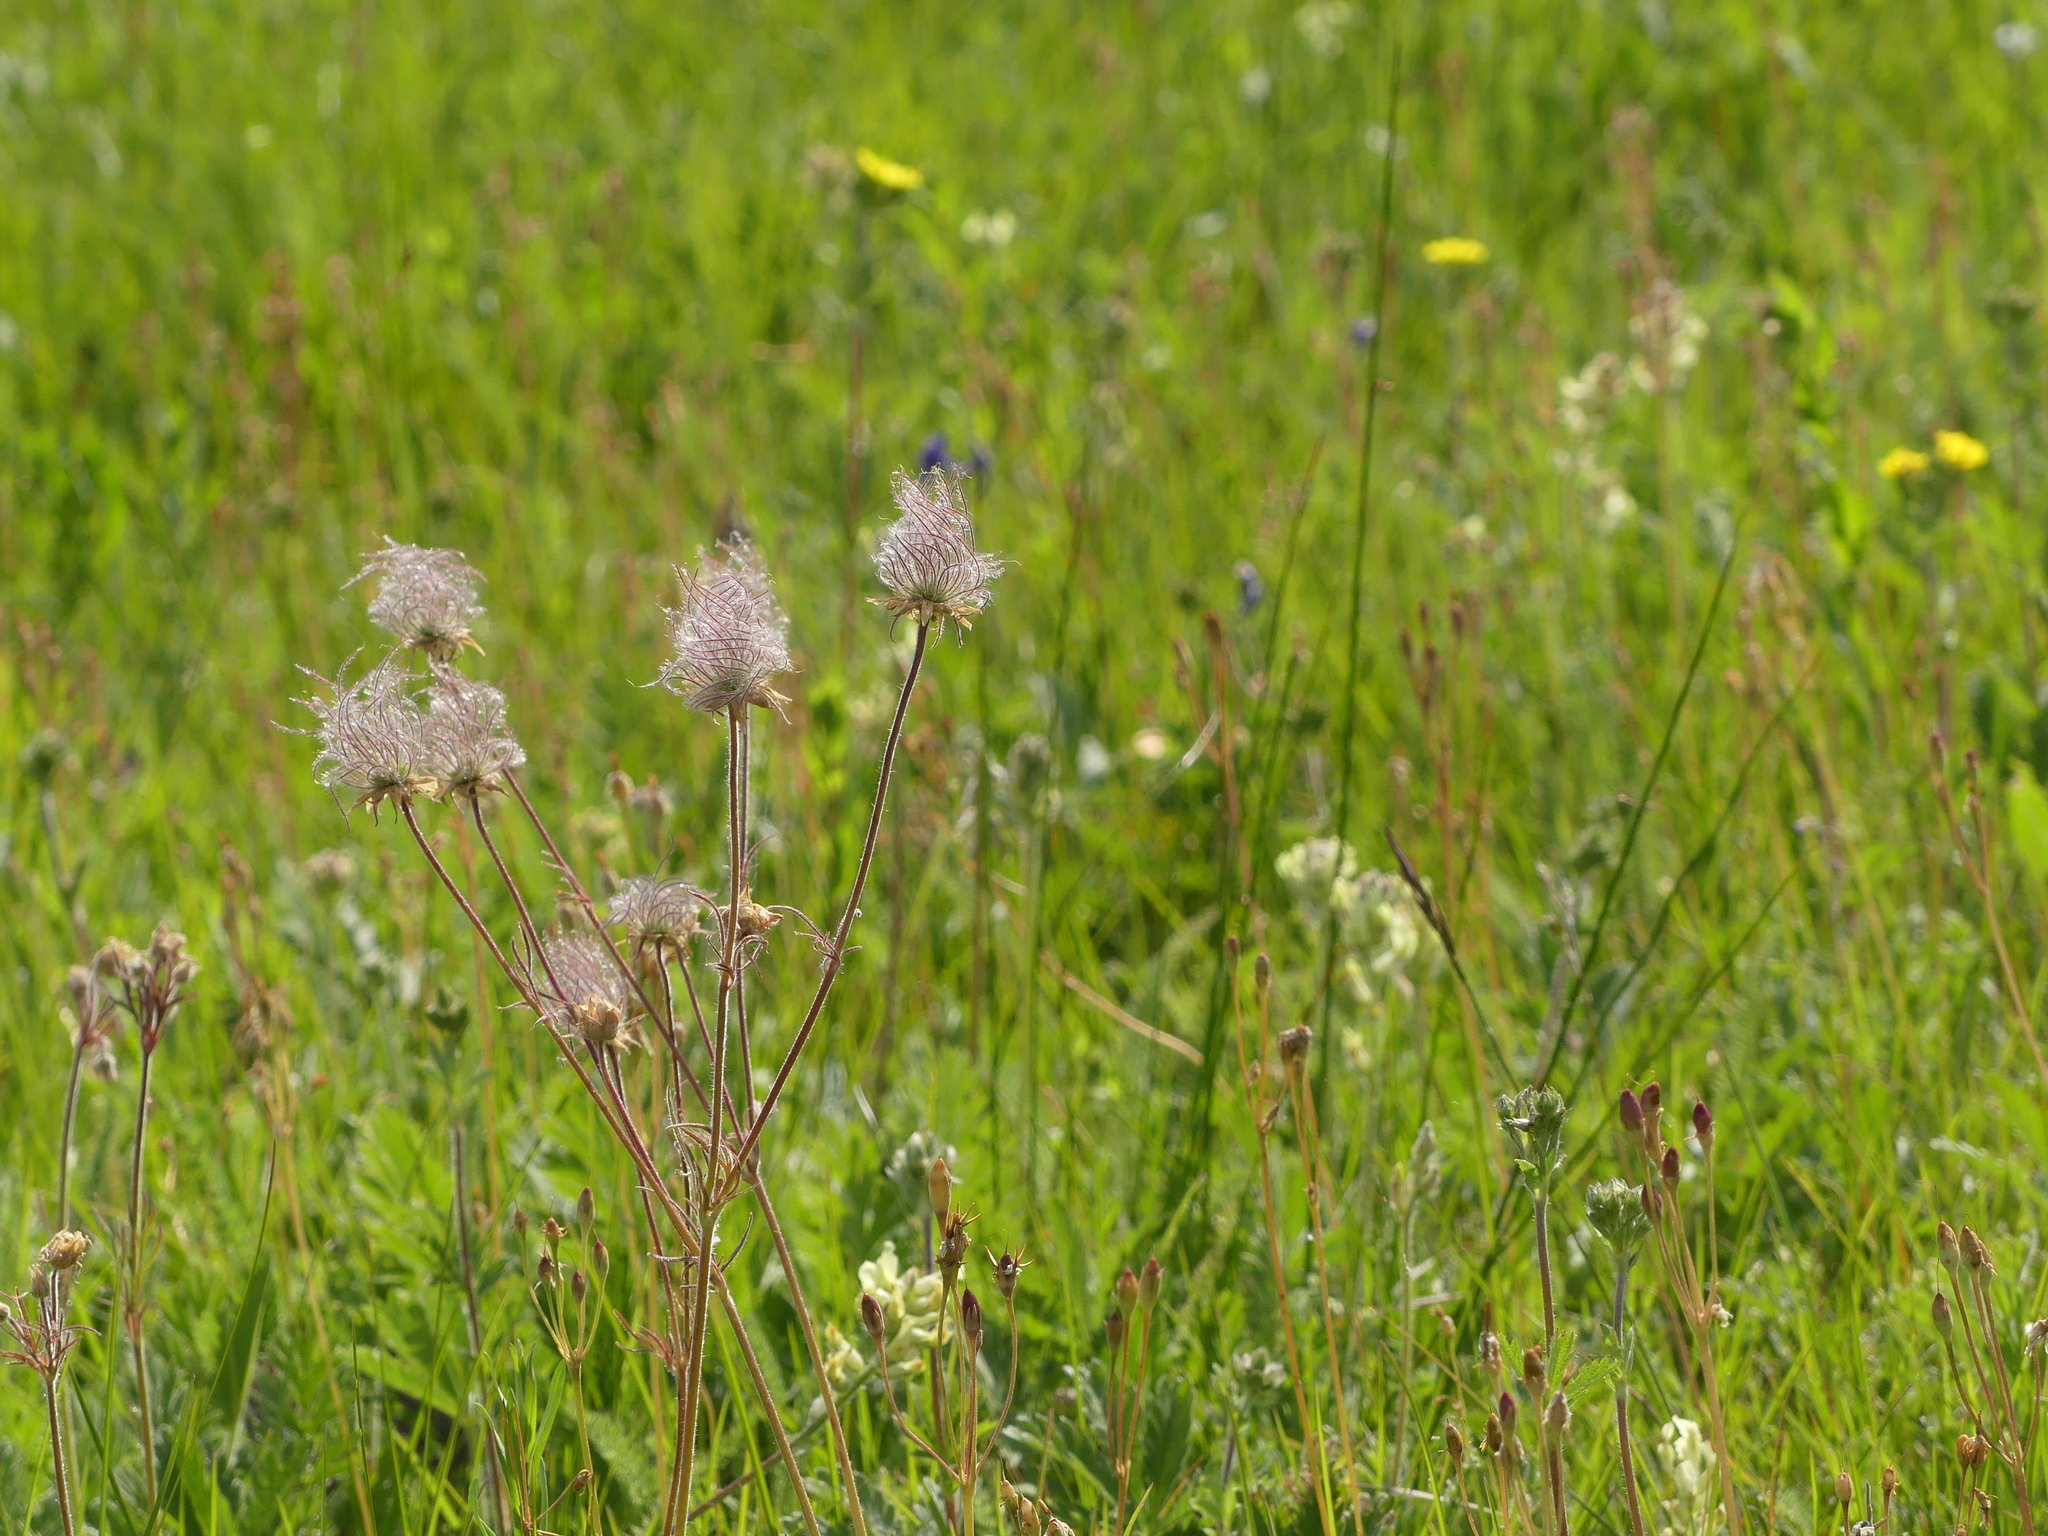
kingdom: Plantae
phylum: Tracheophyta
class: Magnoliopsida
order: Rosales
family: Rosaceae
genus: Geum
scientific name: Geum triflorum
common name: Old man's whiskers
